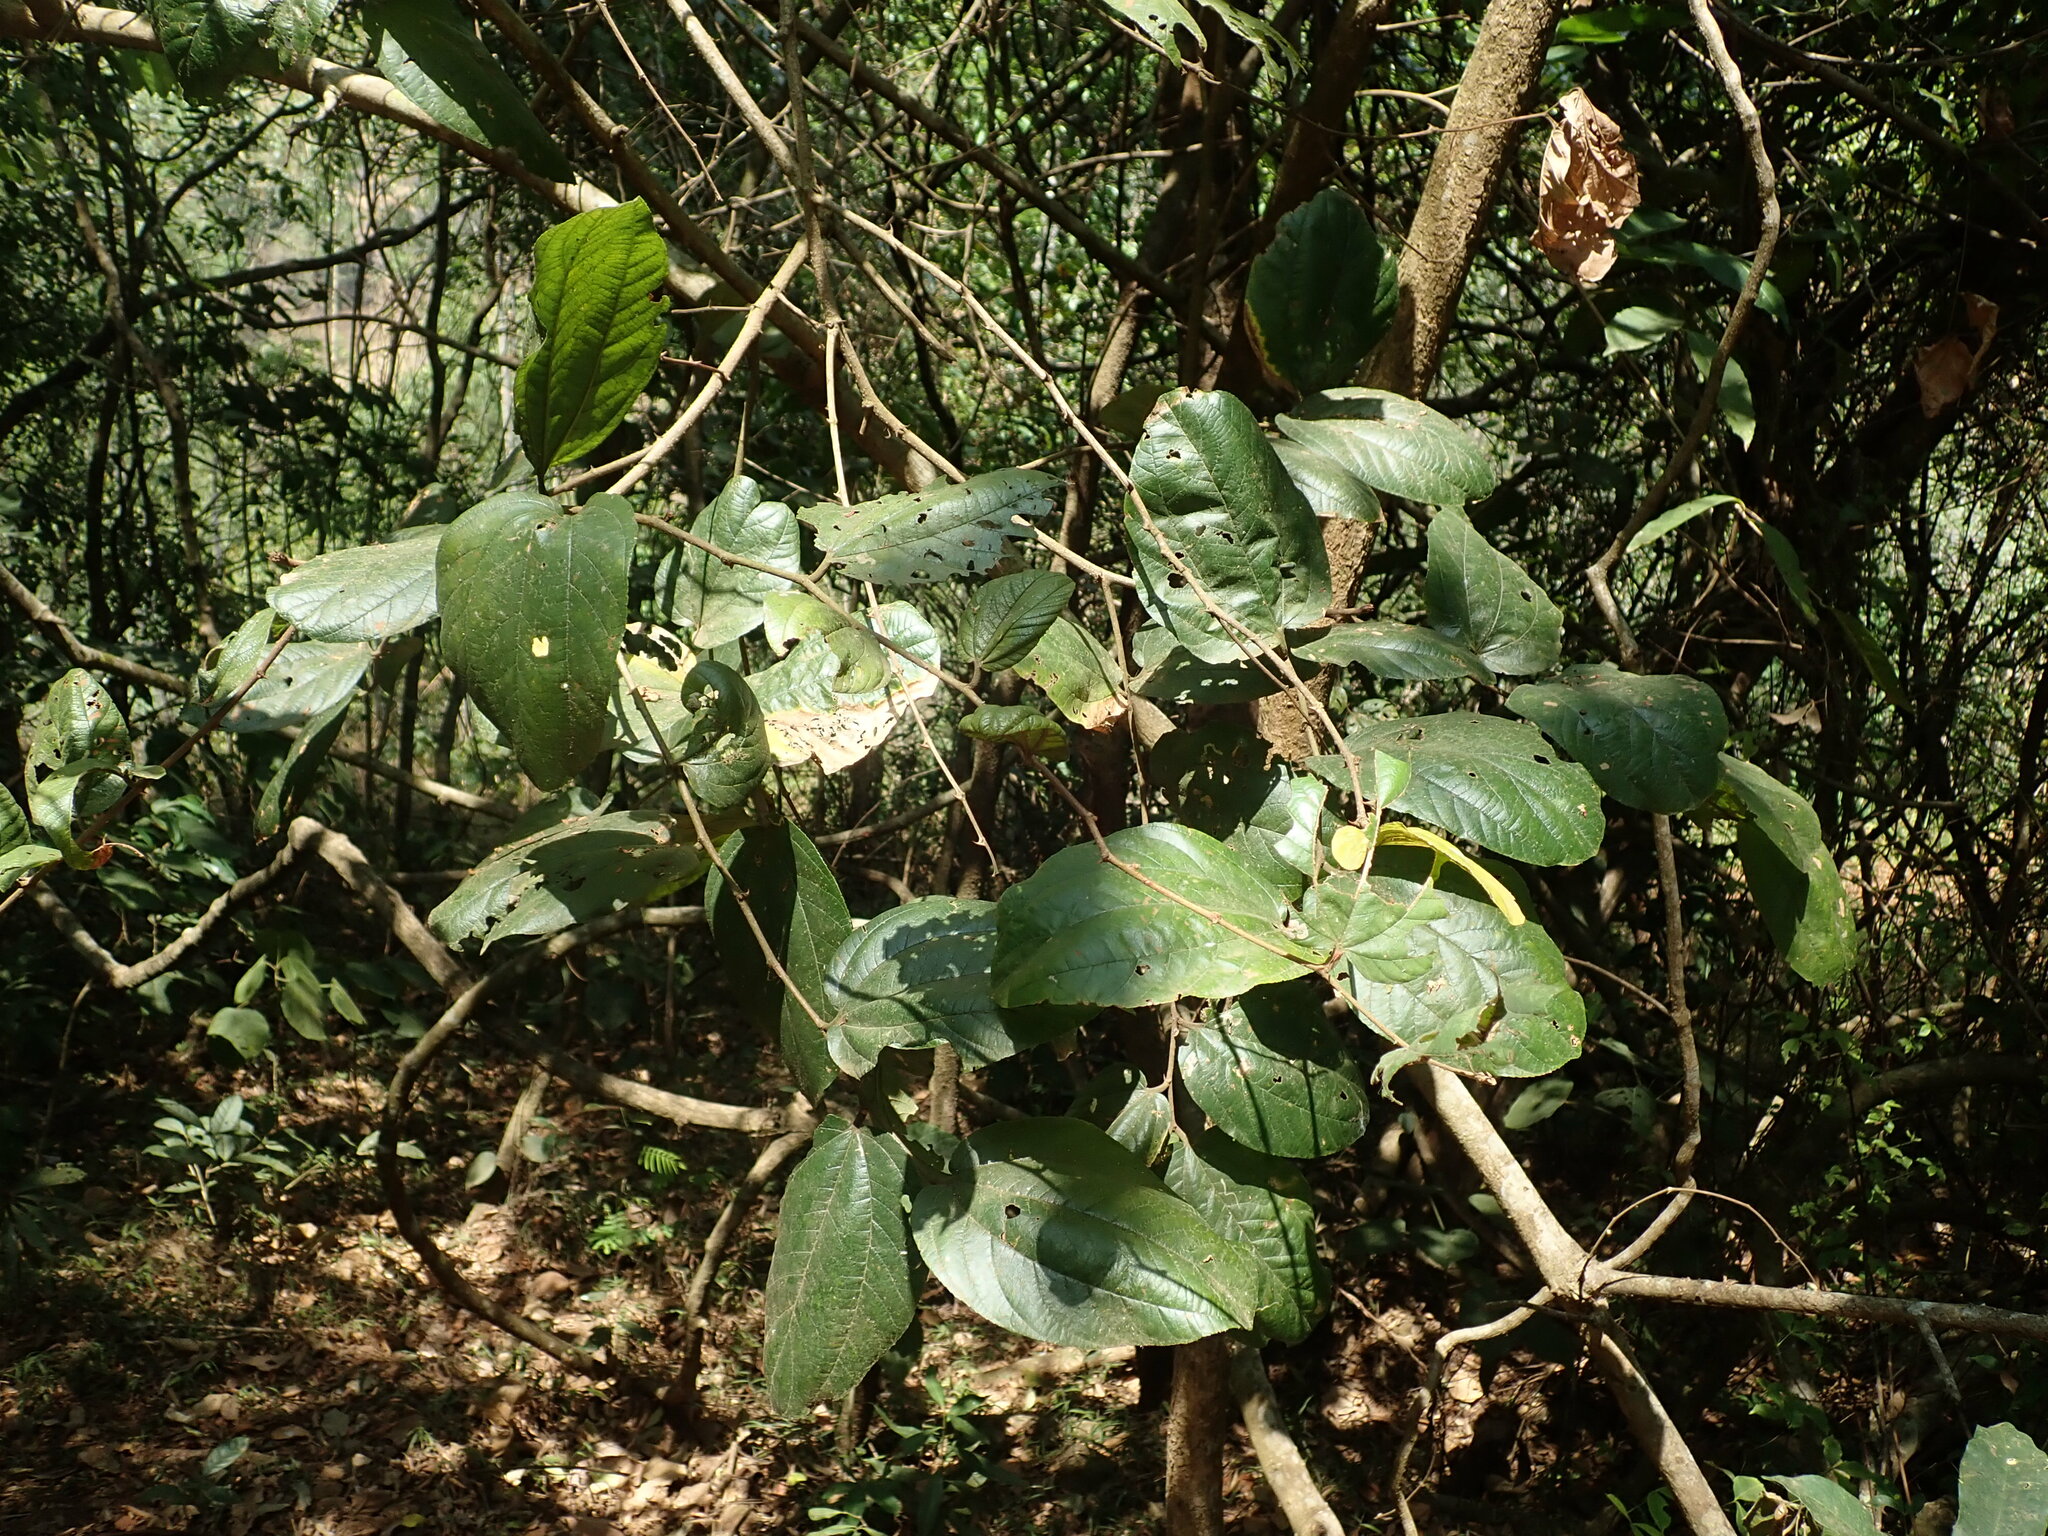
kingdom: Plantae
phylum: Tracheophyta
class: Magnoliopsida
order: Rosales
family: Rhamnaceae
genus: Ziziphus
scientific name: Ziziphus rugosa
